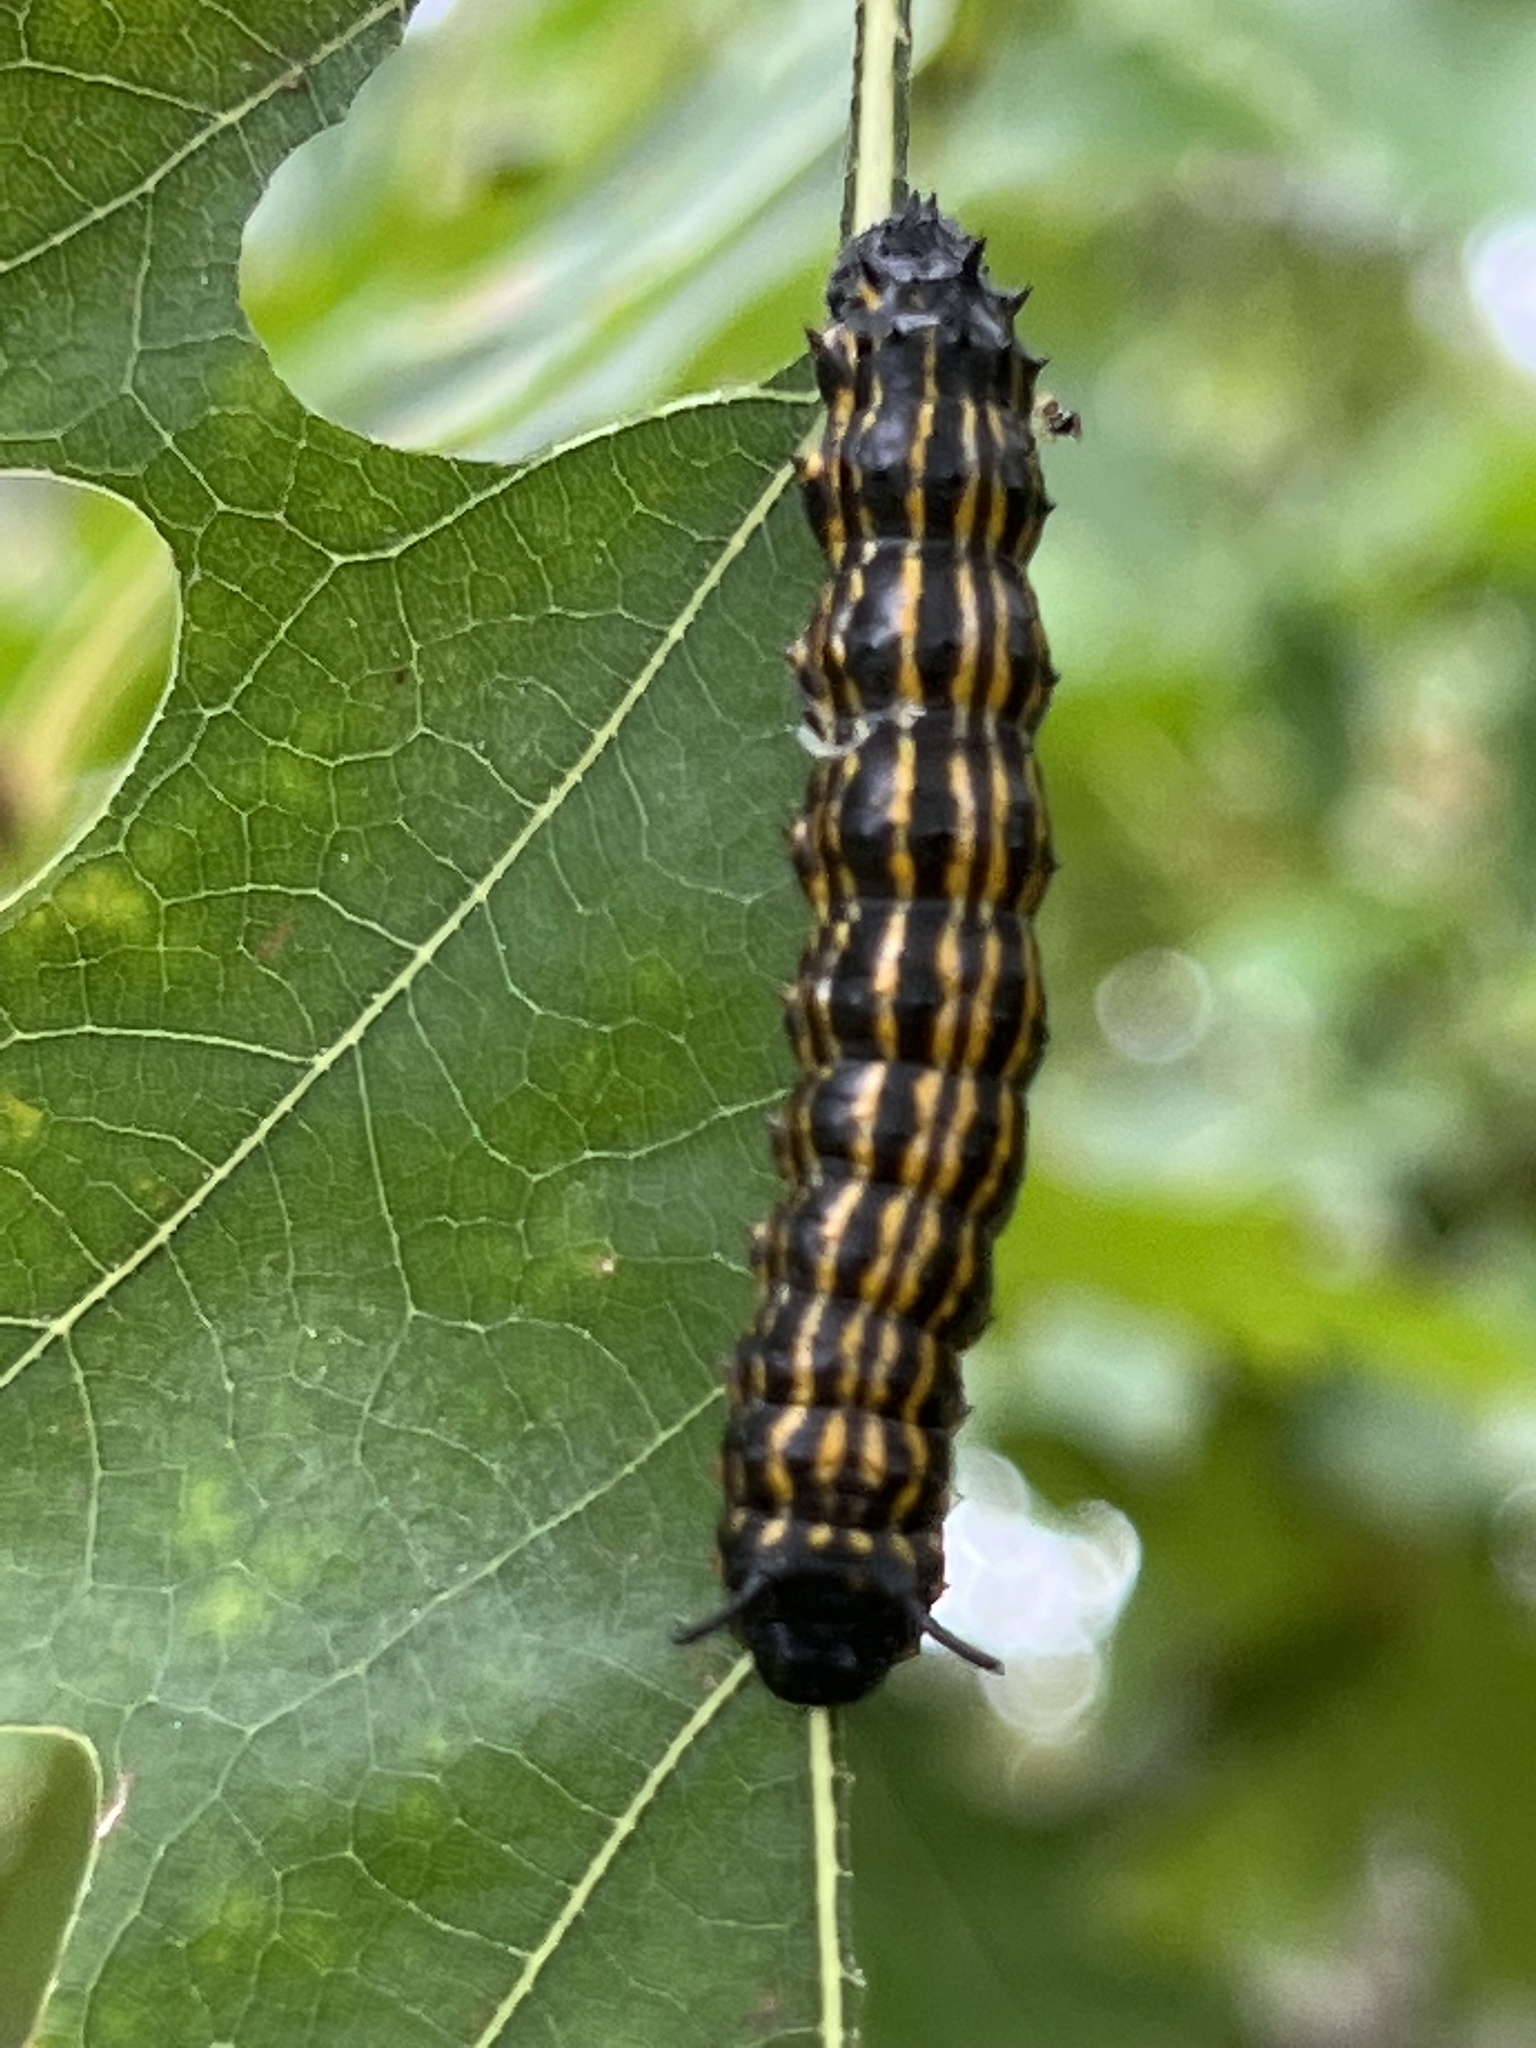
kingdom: Animalia
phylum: Arthropoda
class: Insecta
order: Lepidoptera
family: Saturniidae
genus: Anisota
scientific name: Anisota senatoria
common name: Orange-striped oakworm moth
